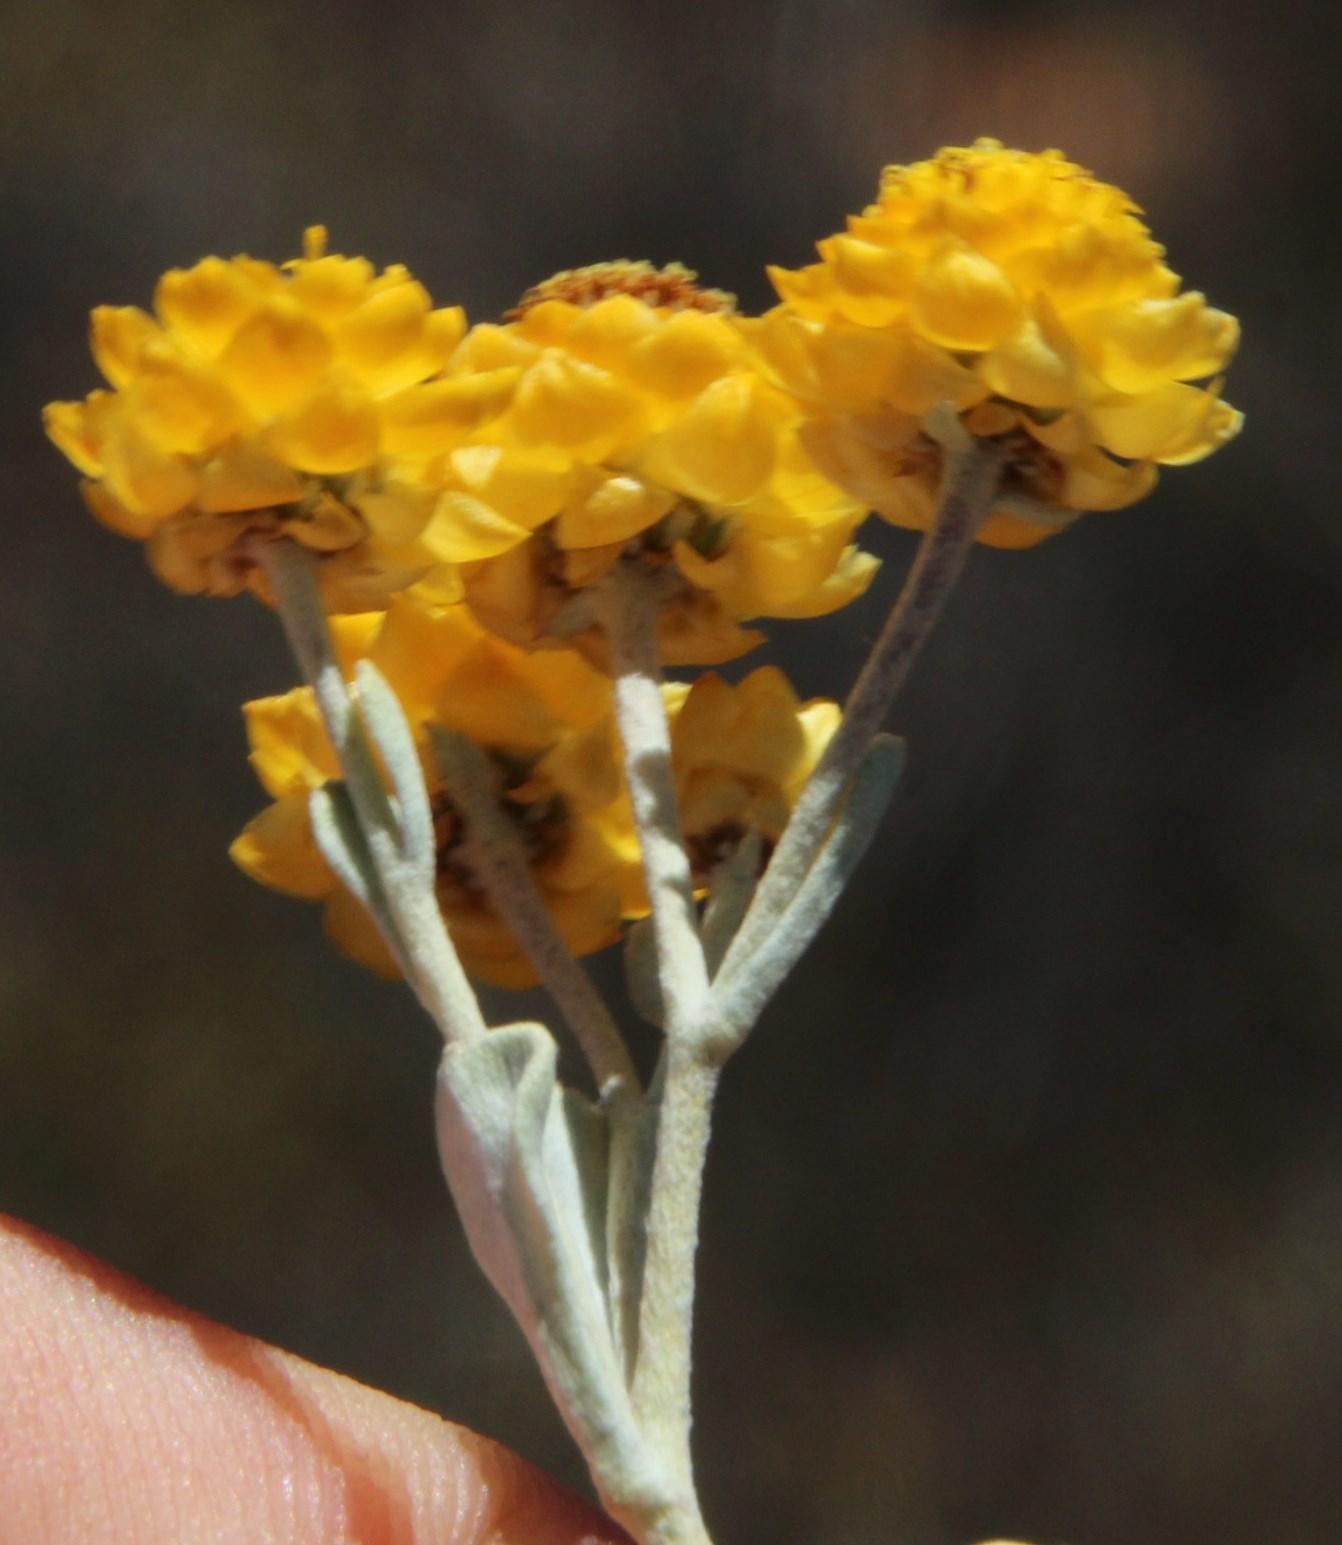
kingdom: Plantae
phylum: Tracheophyta
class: Magnoliopsida
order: Asterales
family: Asteraceae
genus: Helichrysum
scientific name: Helichrysum acrophilum
